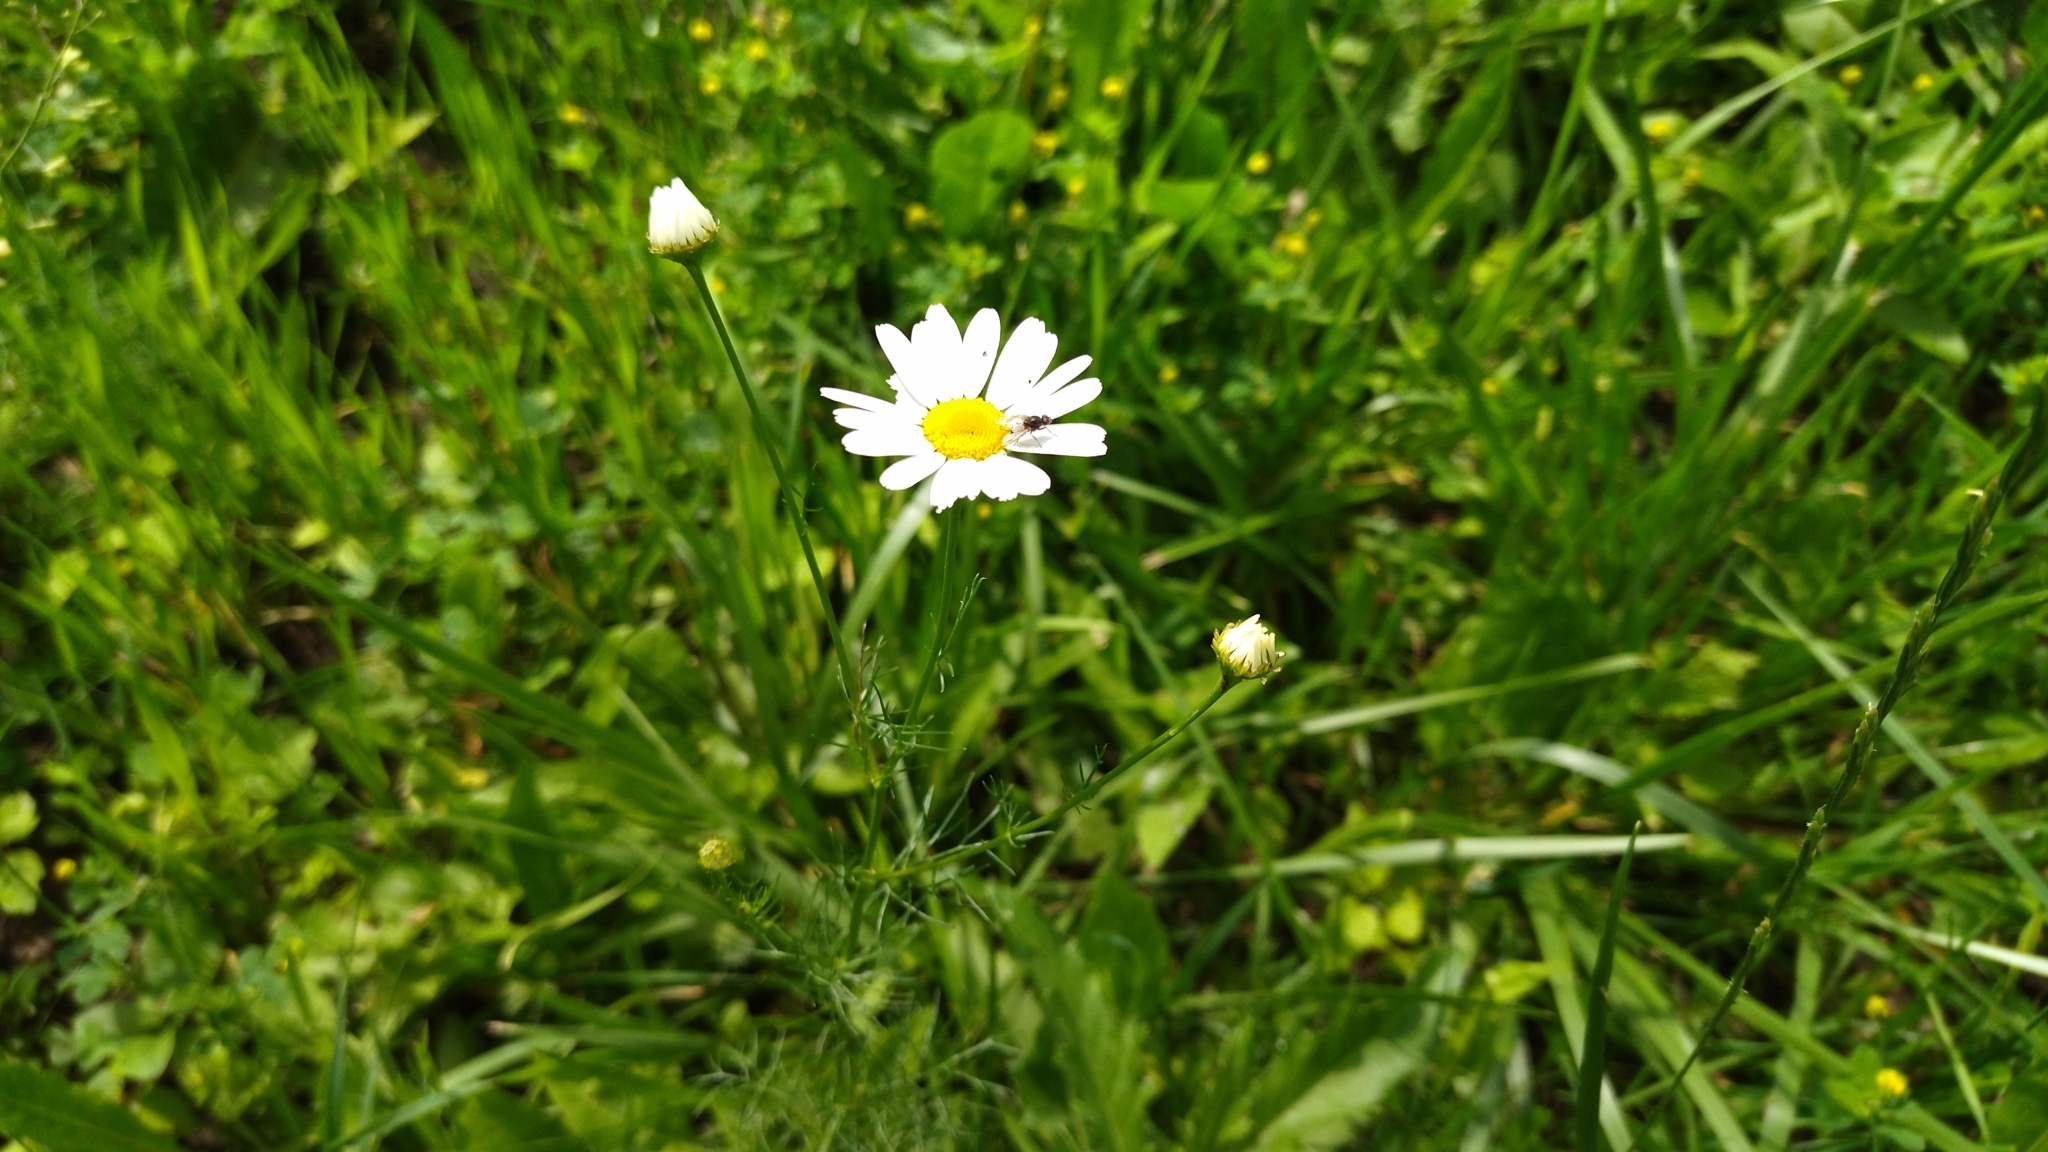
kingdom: Plantae
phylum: Tracheophyta
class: Magnoliopsida
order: Asterales
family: Asteraceae
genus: Tripleurospermum
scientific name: Tripleurospermum inodorum
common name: Scentless mayweed
